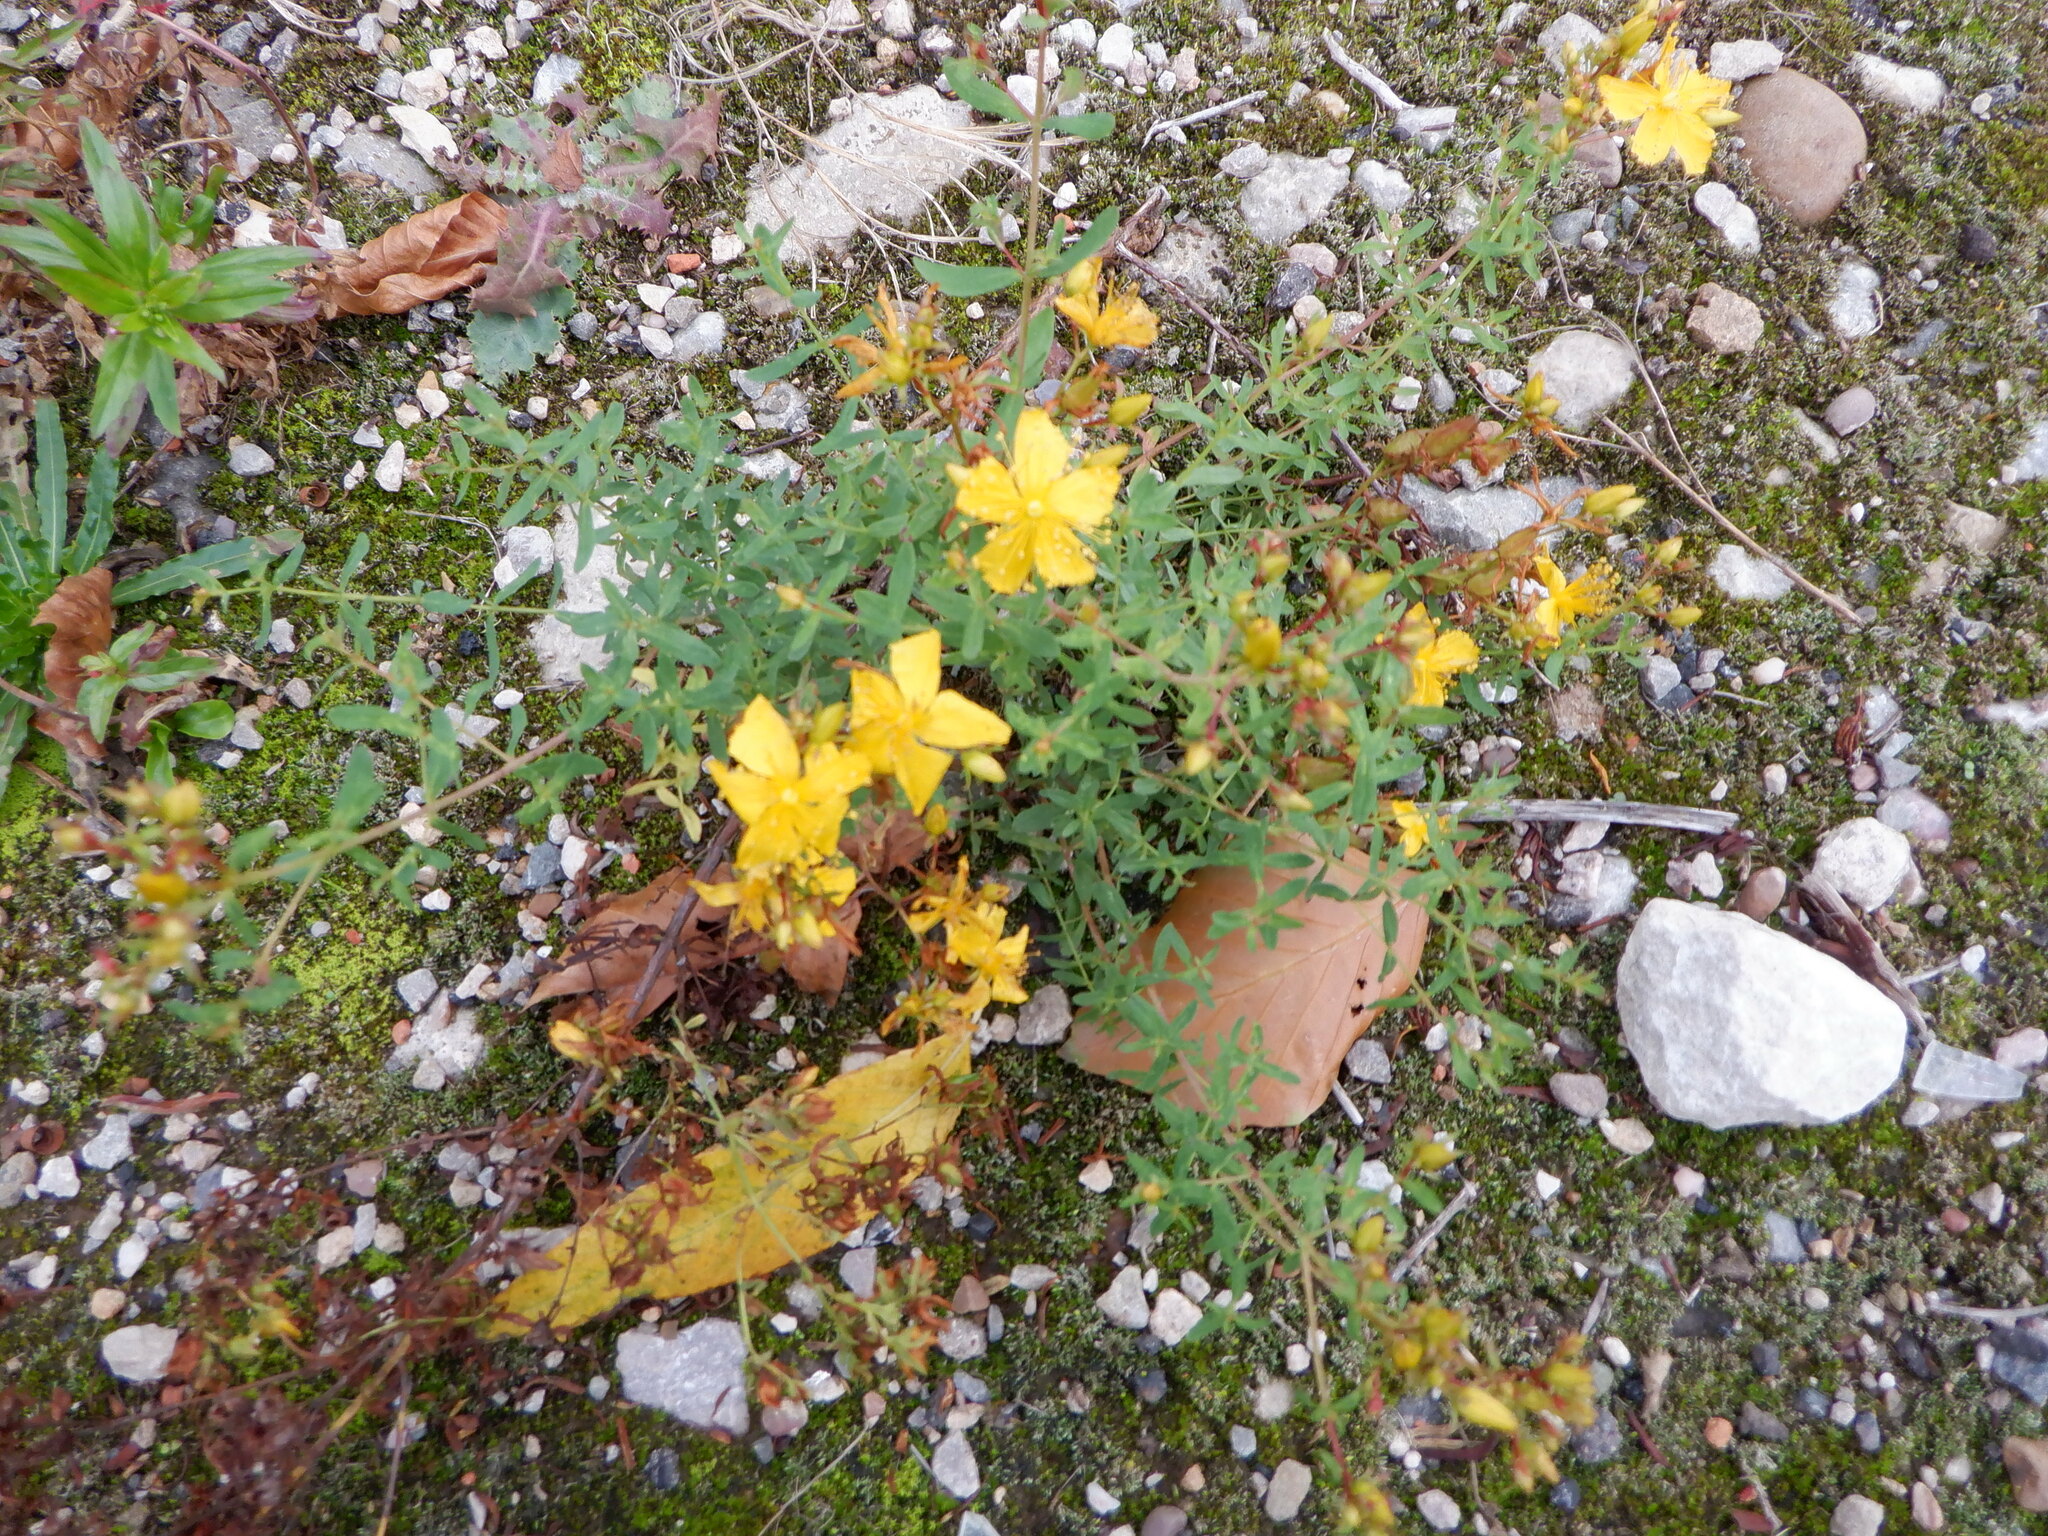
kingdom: Plantae
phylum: Tracheophyta
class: Magnoliopsida
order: Malpighiales
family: Hypericaceae
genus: Hypericum
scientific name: Hypericum perforatum
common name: Common st. johnswort
